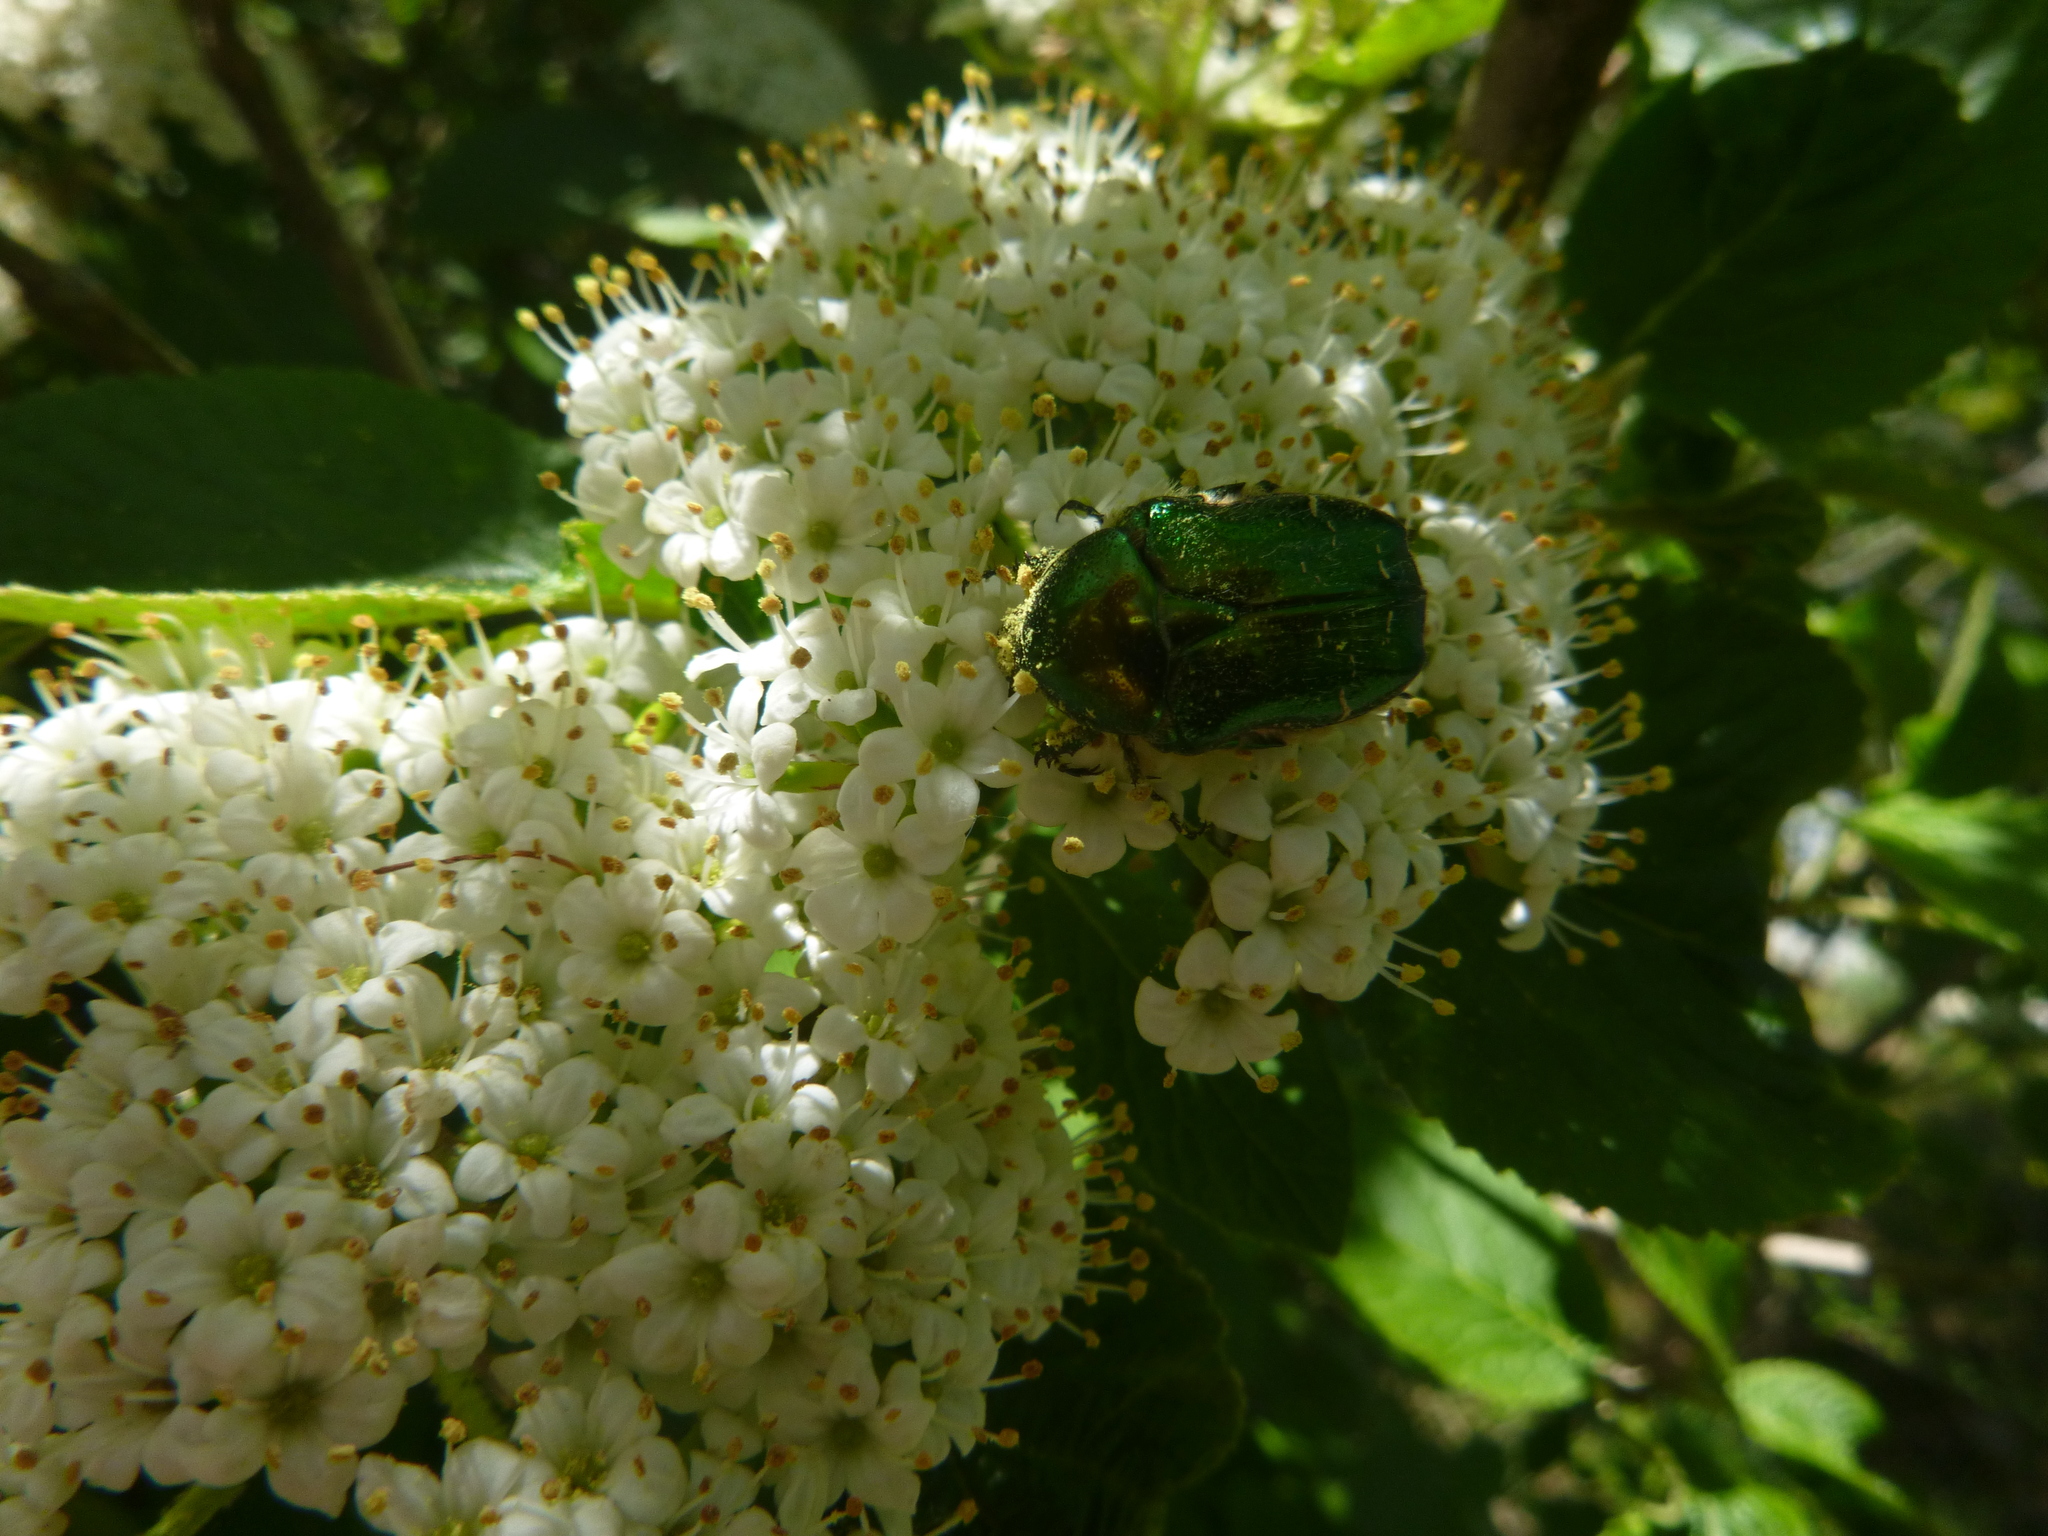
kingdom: Animalia
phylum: Arthropoda
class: Insecta
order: Coleoptera
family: Scarabaeidae
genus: Cetonia
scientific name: Cetonia aurata
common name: Rose chafer
